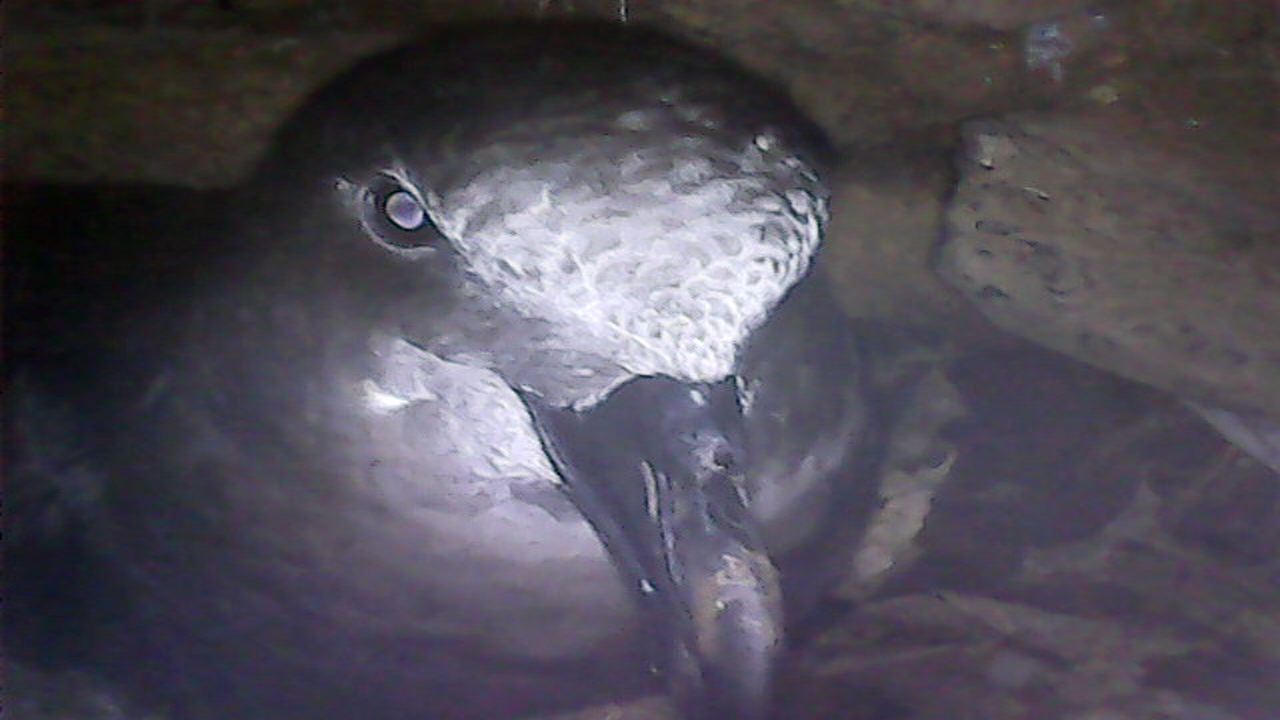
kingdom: Animalia
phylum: Chordata
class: Aves
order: Procellariiformes
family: Procellariidae
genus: Pterodroma
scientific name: Pterodroma macroptera
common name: Great-winged petrel
